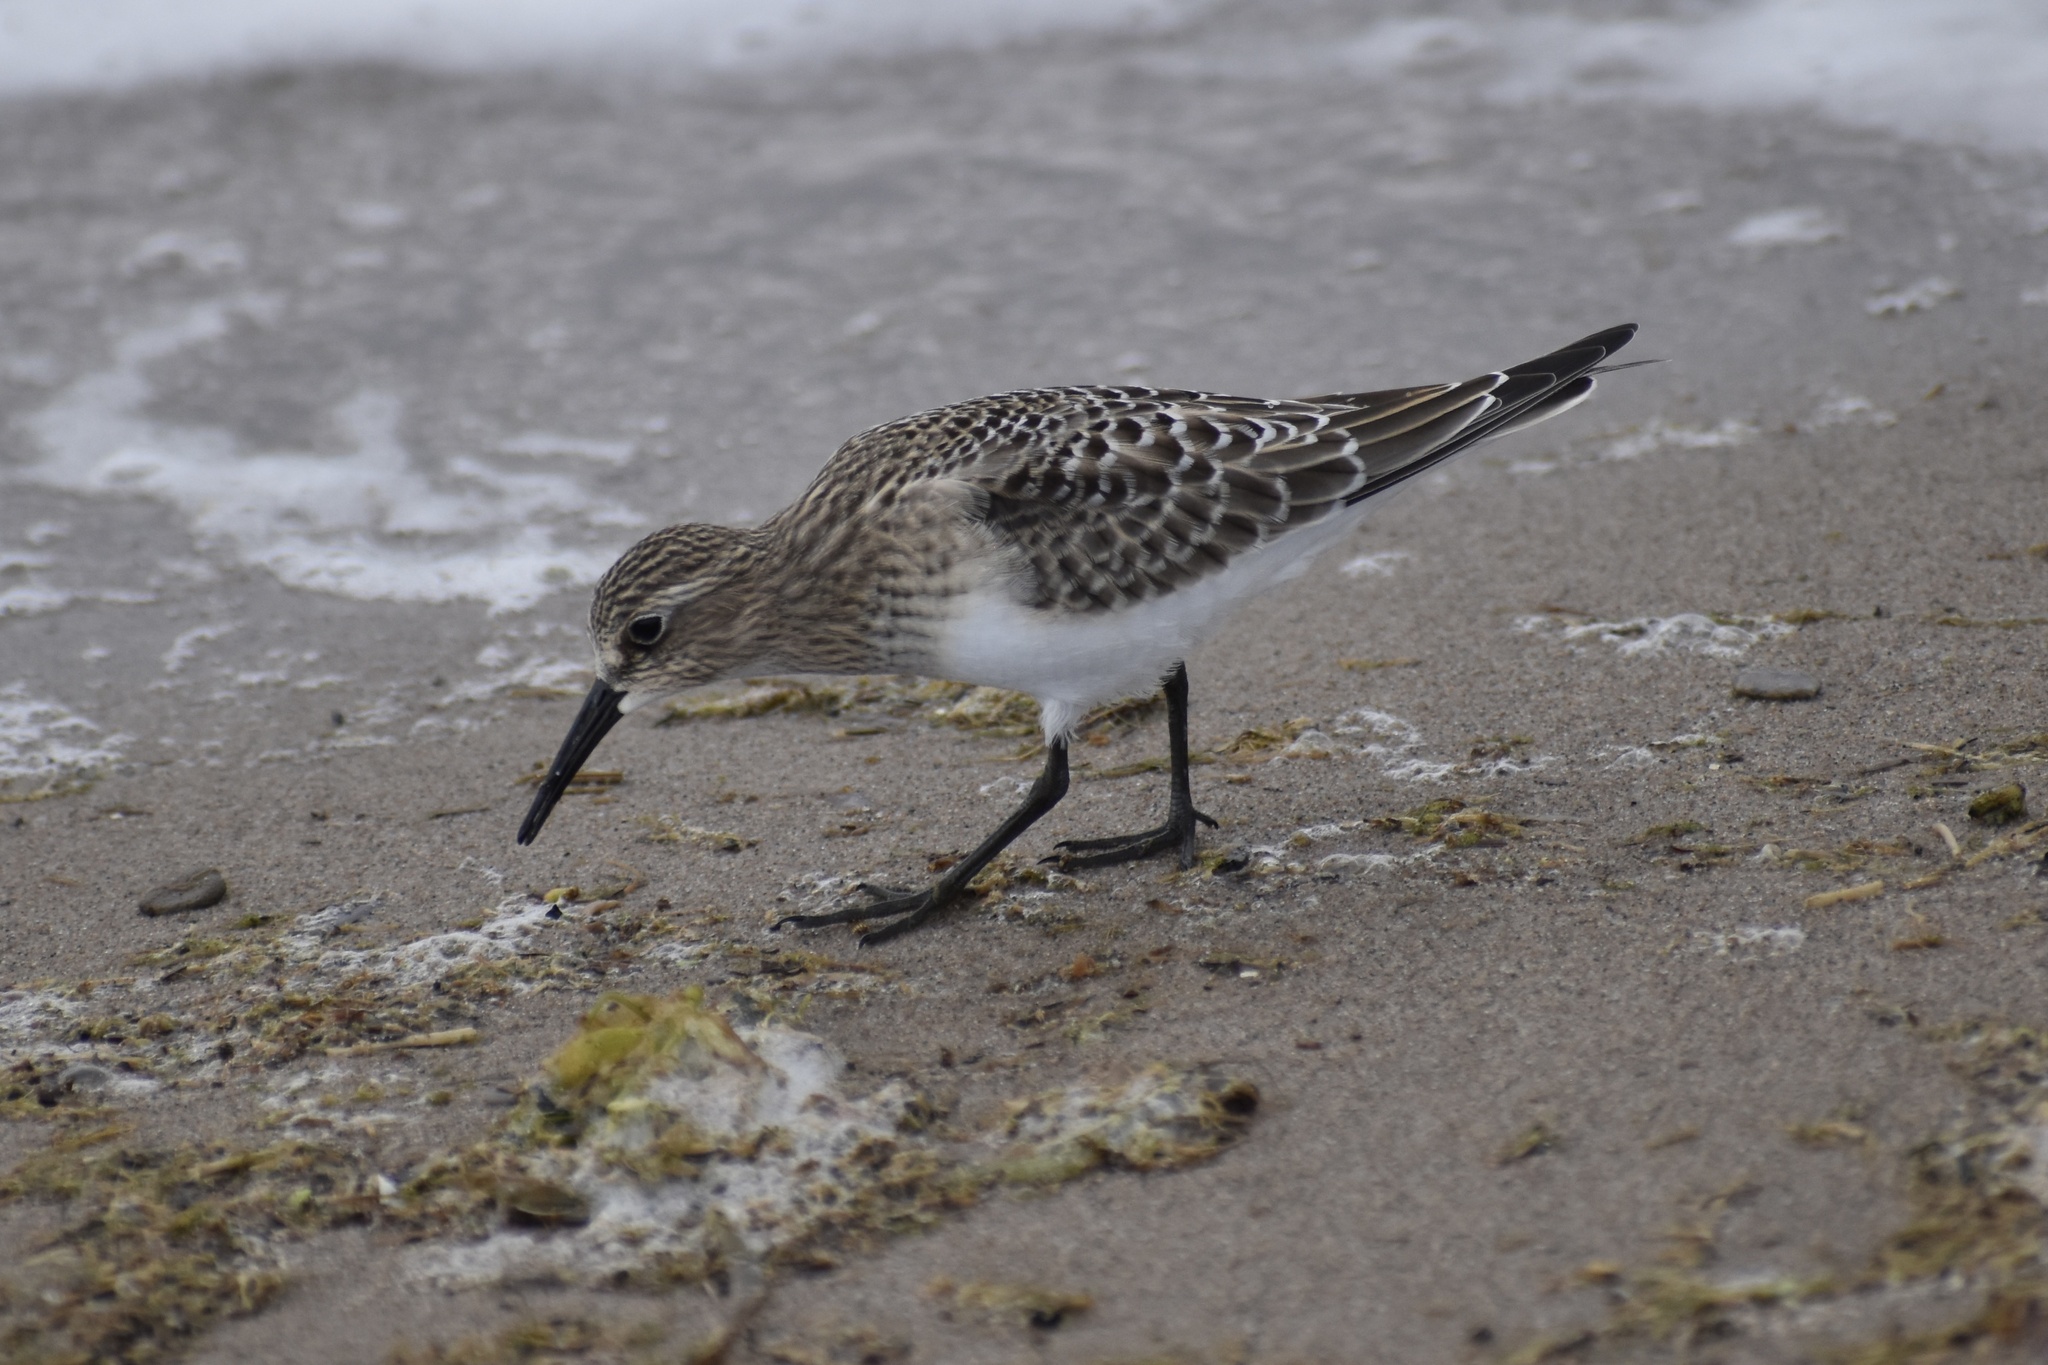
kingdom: Animalia
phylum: Chordata
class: Aves
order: Charadriiformes
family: Scolopacidae
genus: Calidris
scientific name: Calidris bairdii
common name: Baird's sandpiper
